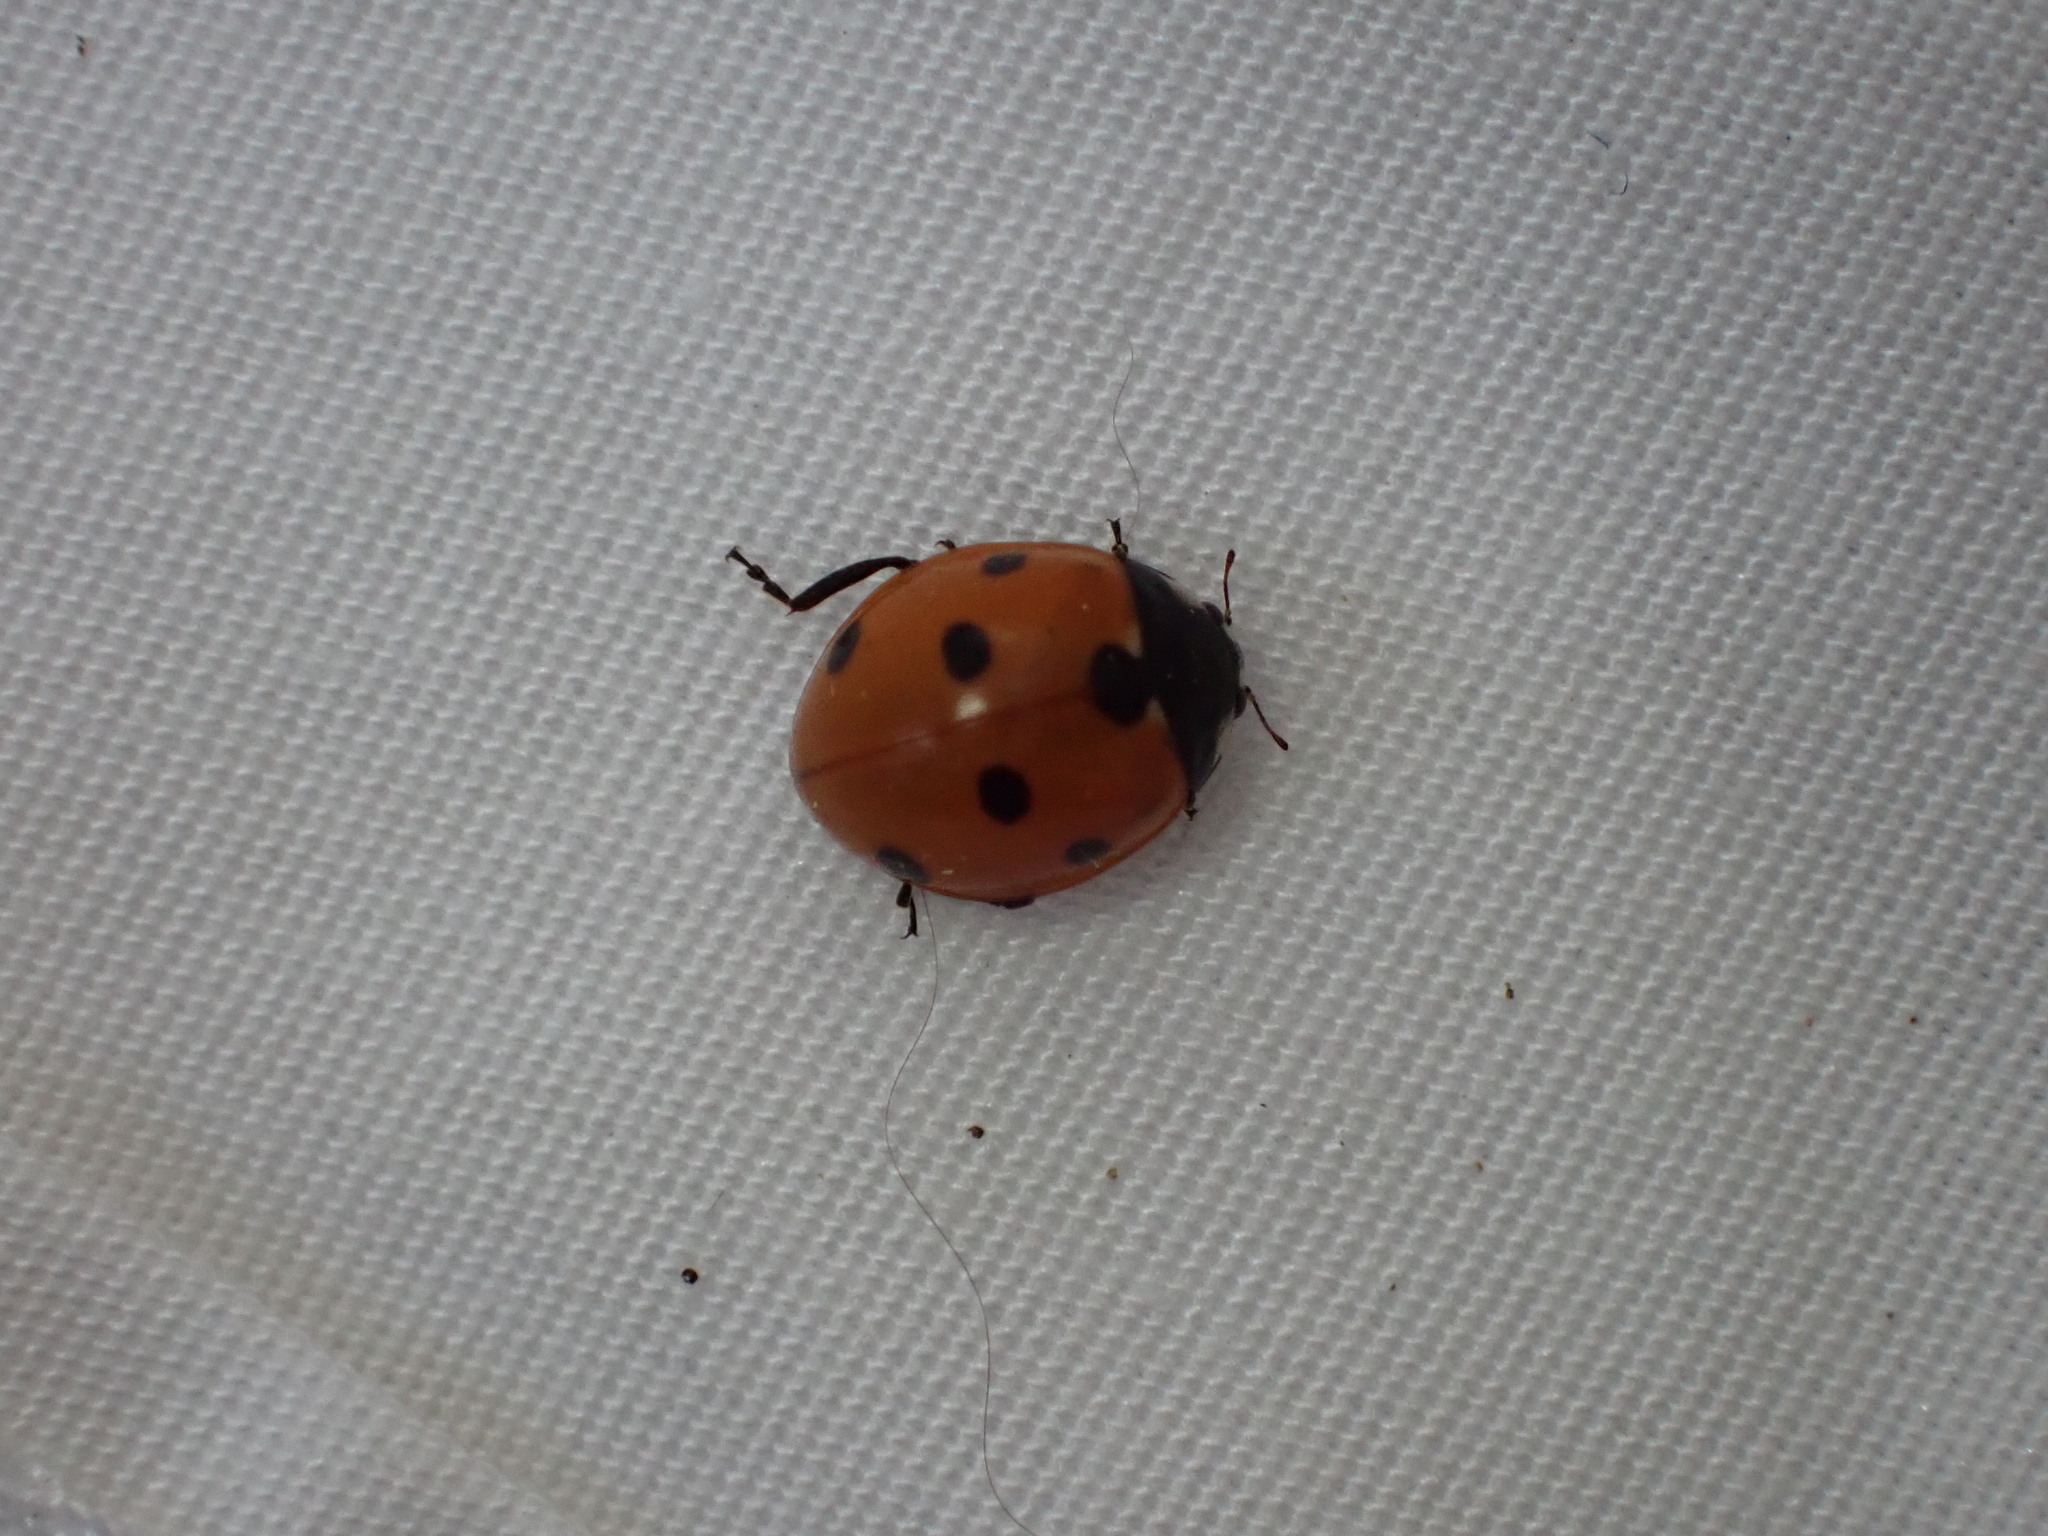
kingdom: Animalia
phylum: Arthropoda
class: Insecta
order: Coleoptera
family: Coccinellidae
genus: Coccinella
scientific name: Coccinella septempunctata
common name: Sevenspotted lady beetle
